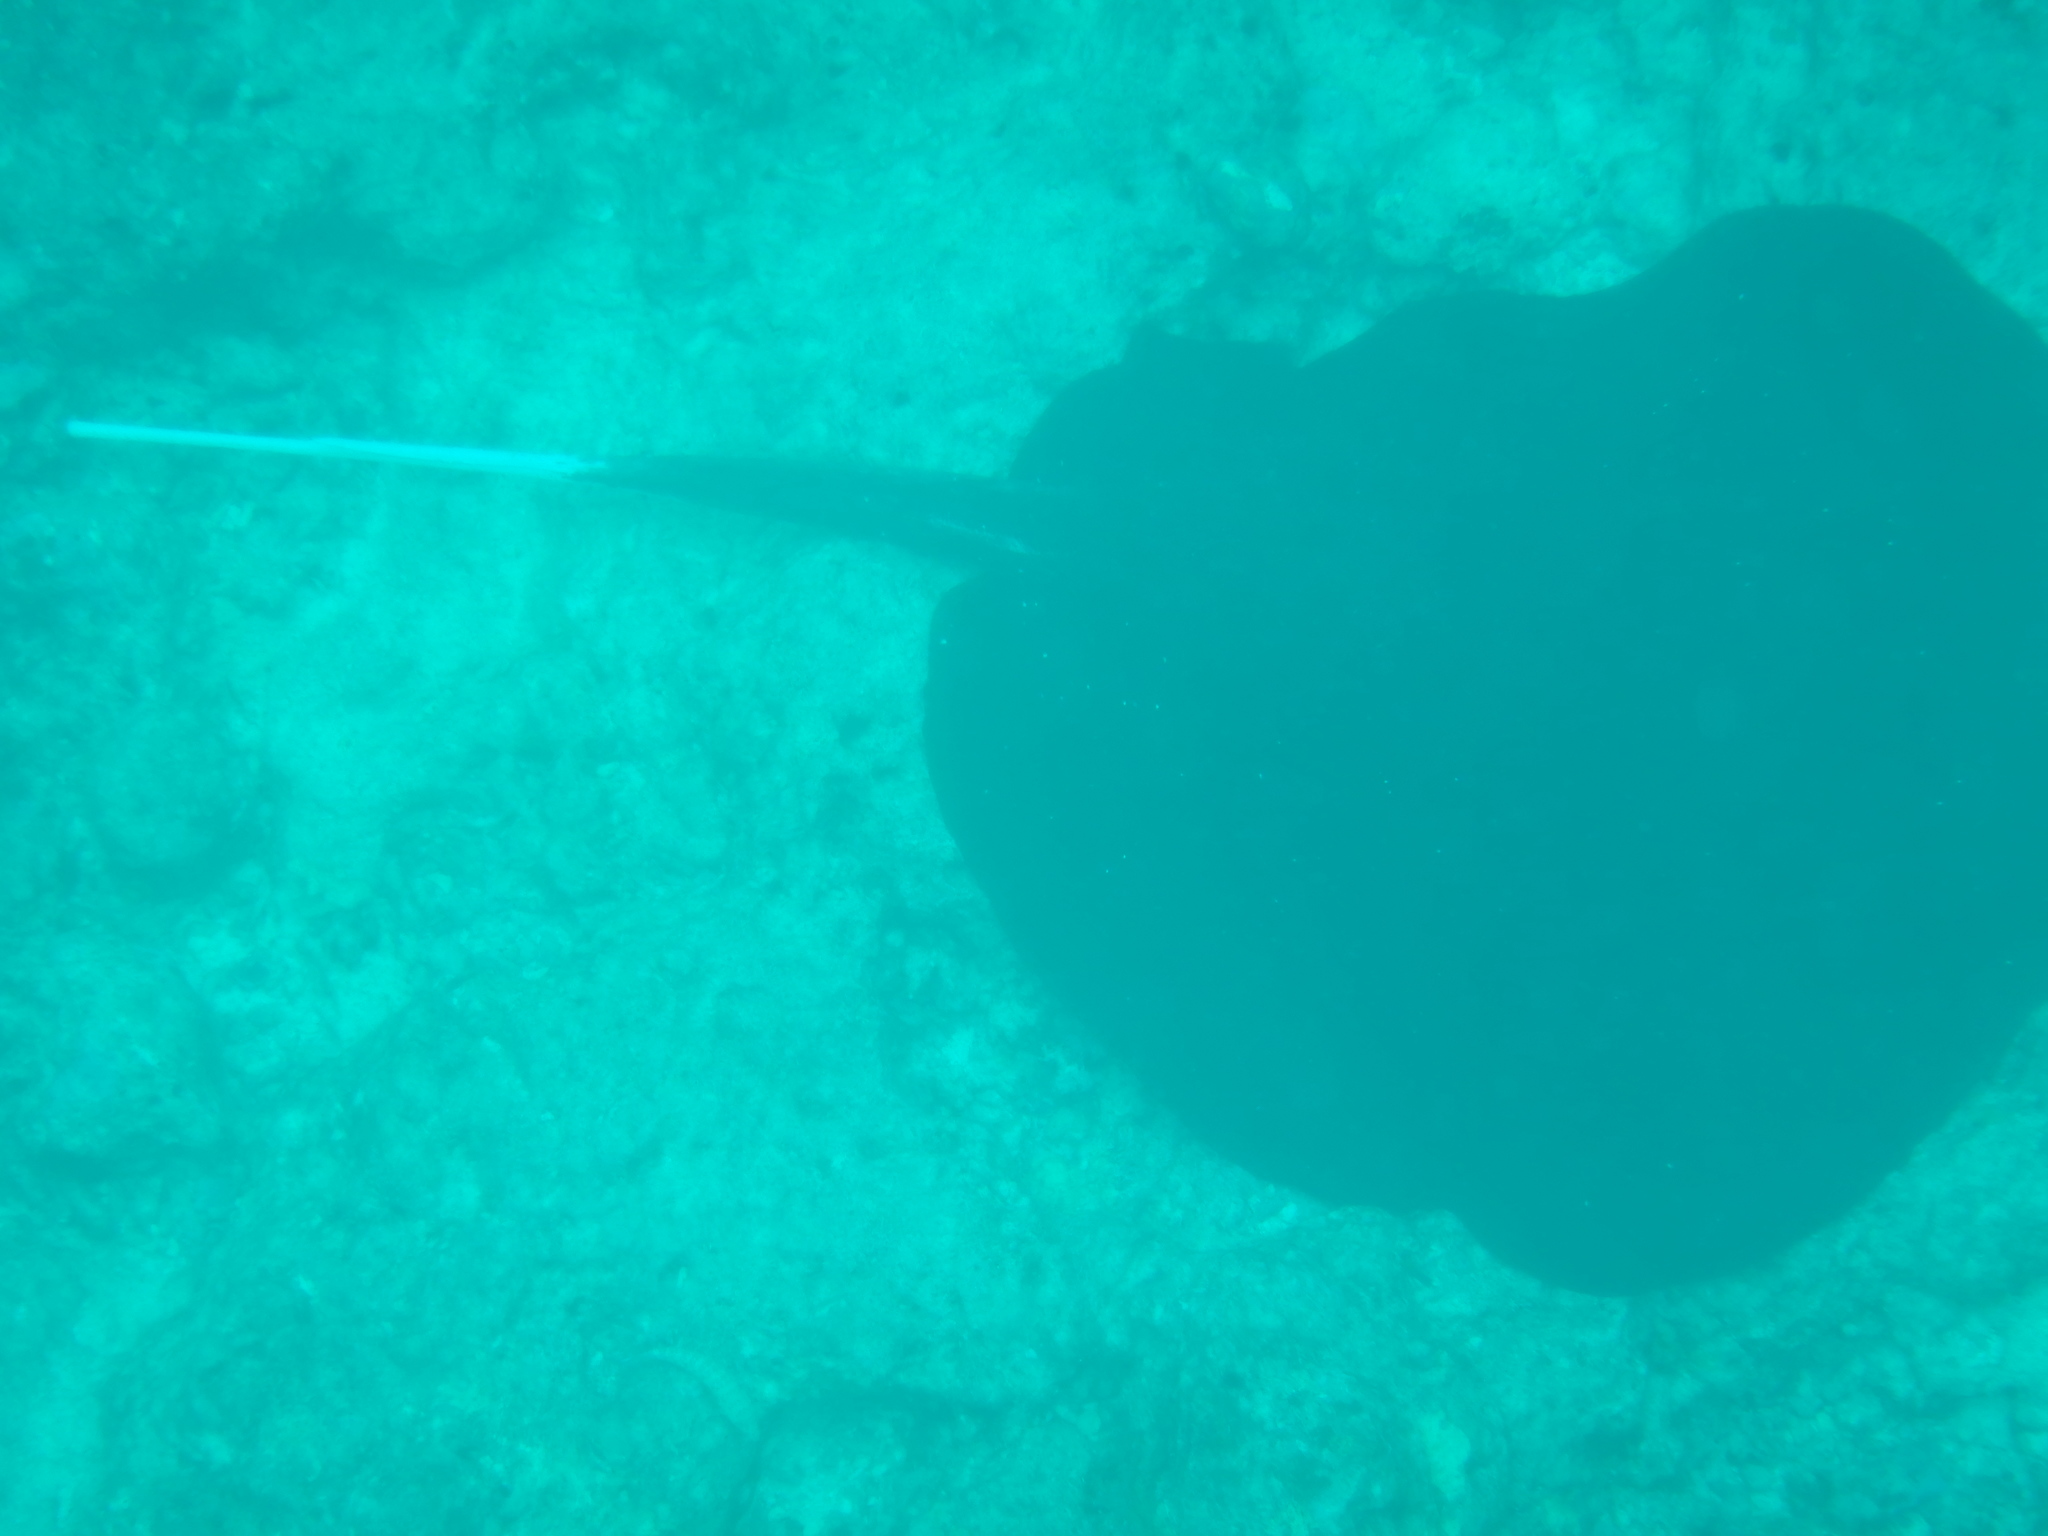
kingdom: Animalia
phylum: Chordata
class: Elasmobranchii
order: Myliobatiformes
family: Dasyatidae
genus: Urogymnus
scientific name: Urogymnus granulatus
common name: Mangrove whipray
